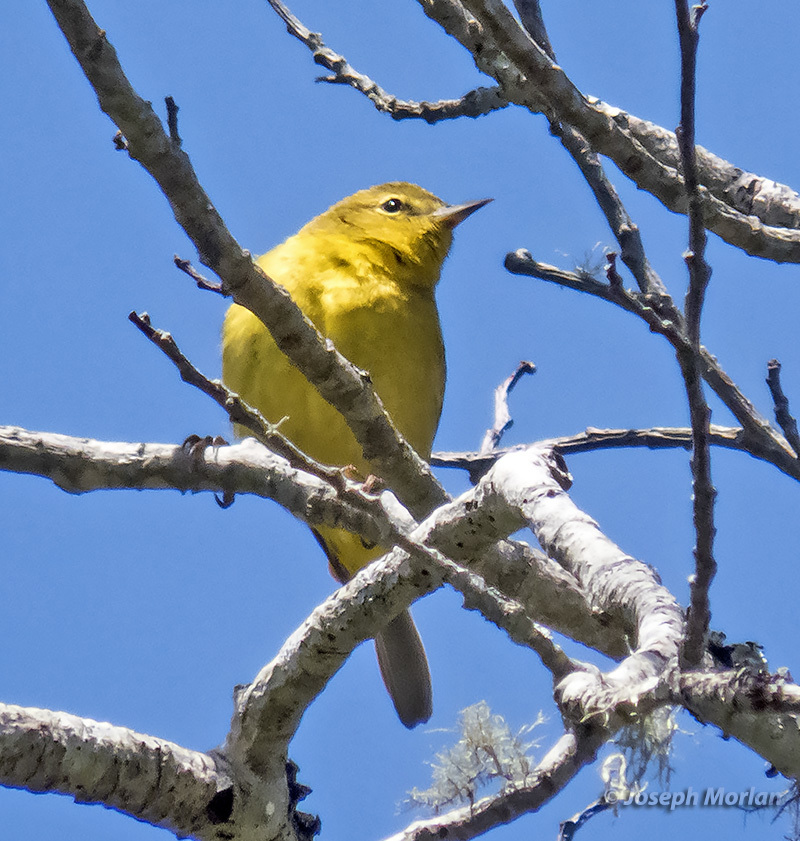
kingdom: Animalia
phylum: Chordata
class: Aves
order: Passeriformes
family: Parulidae
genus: Leiothlypis
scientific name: Leiothlypis celata
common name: Orange-crowned warbler
